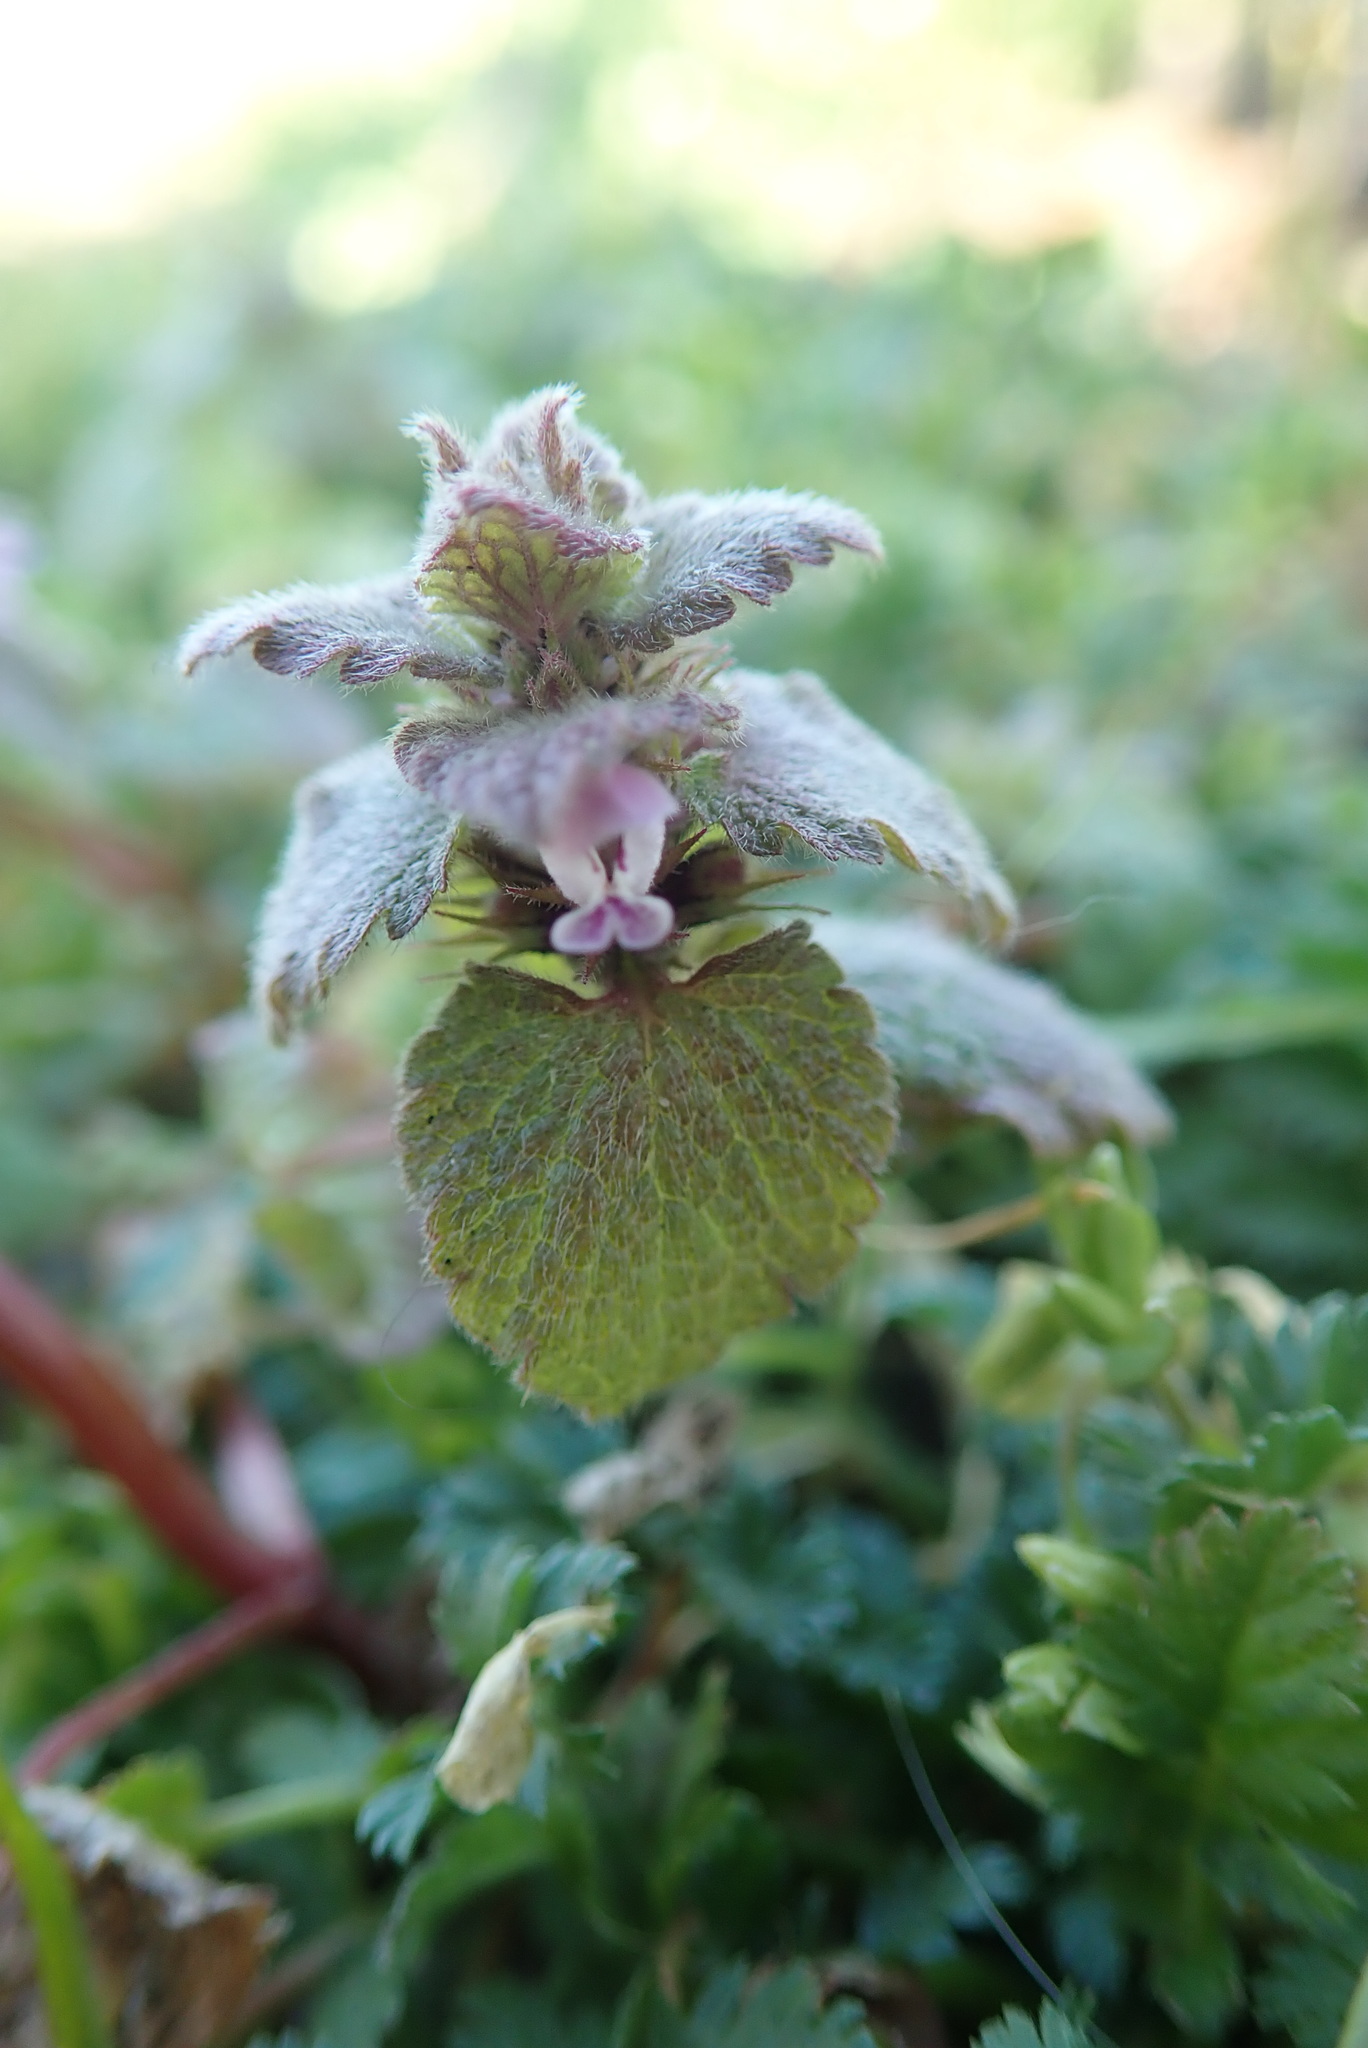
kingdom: Plantae
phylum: Tracheophyta
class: Magnoliopsida
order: Lamiales
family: Lamiaceae
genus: Lamium
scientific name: Lamium purpureum
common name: Red dead-nettle
